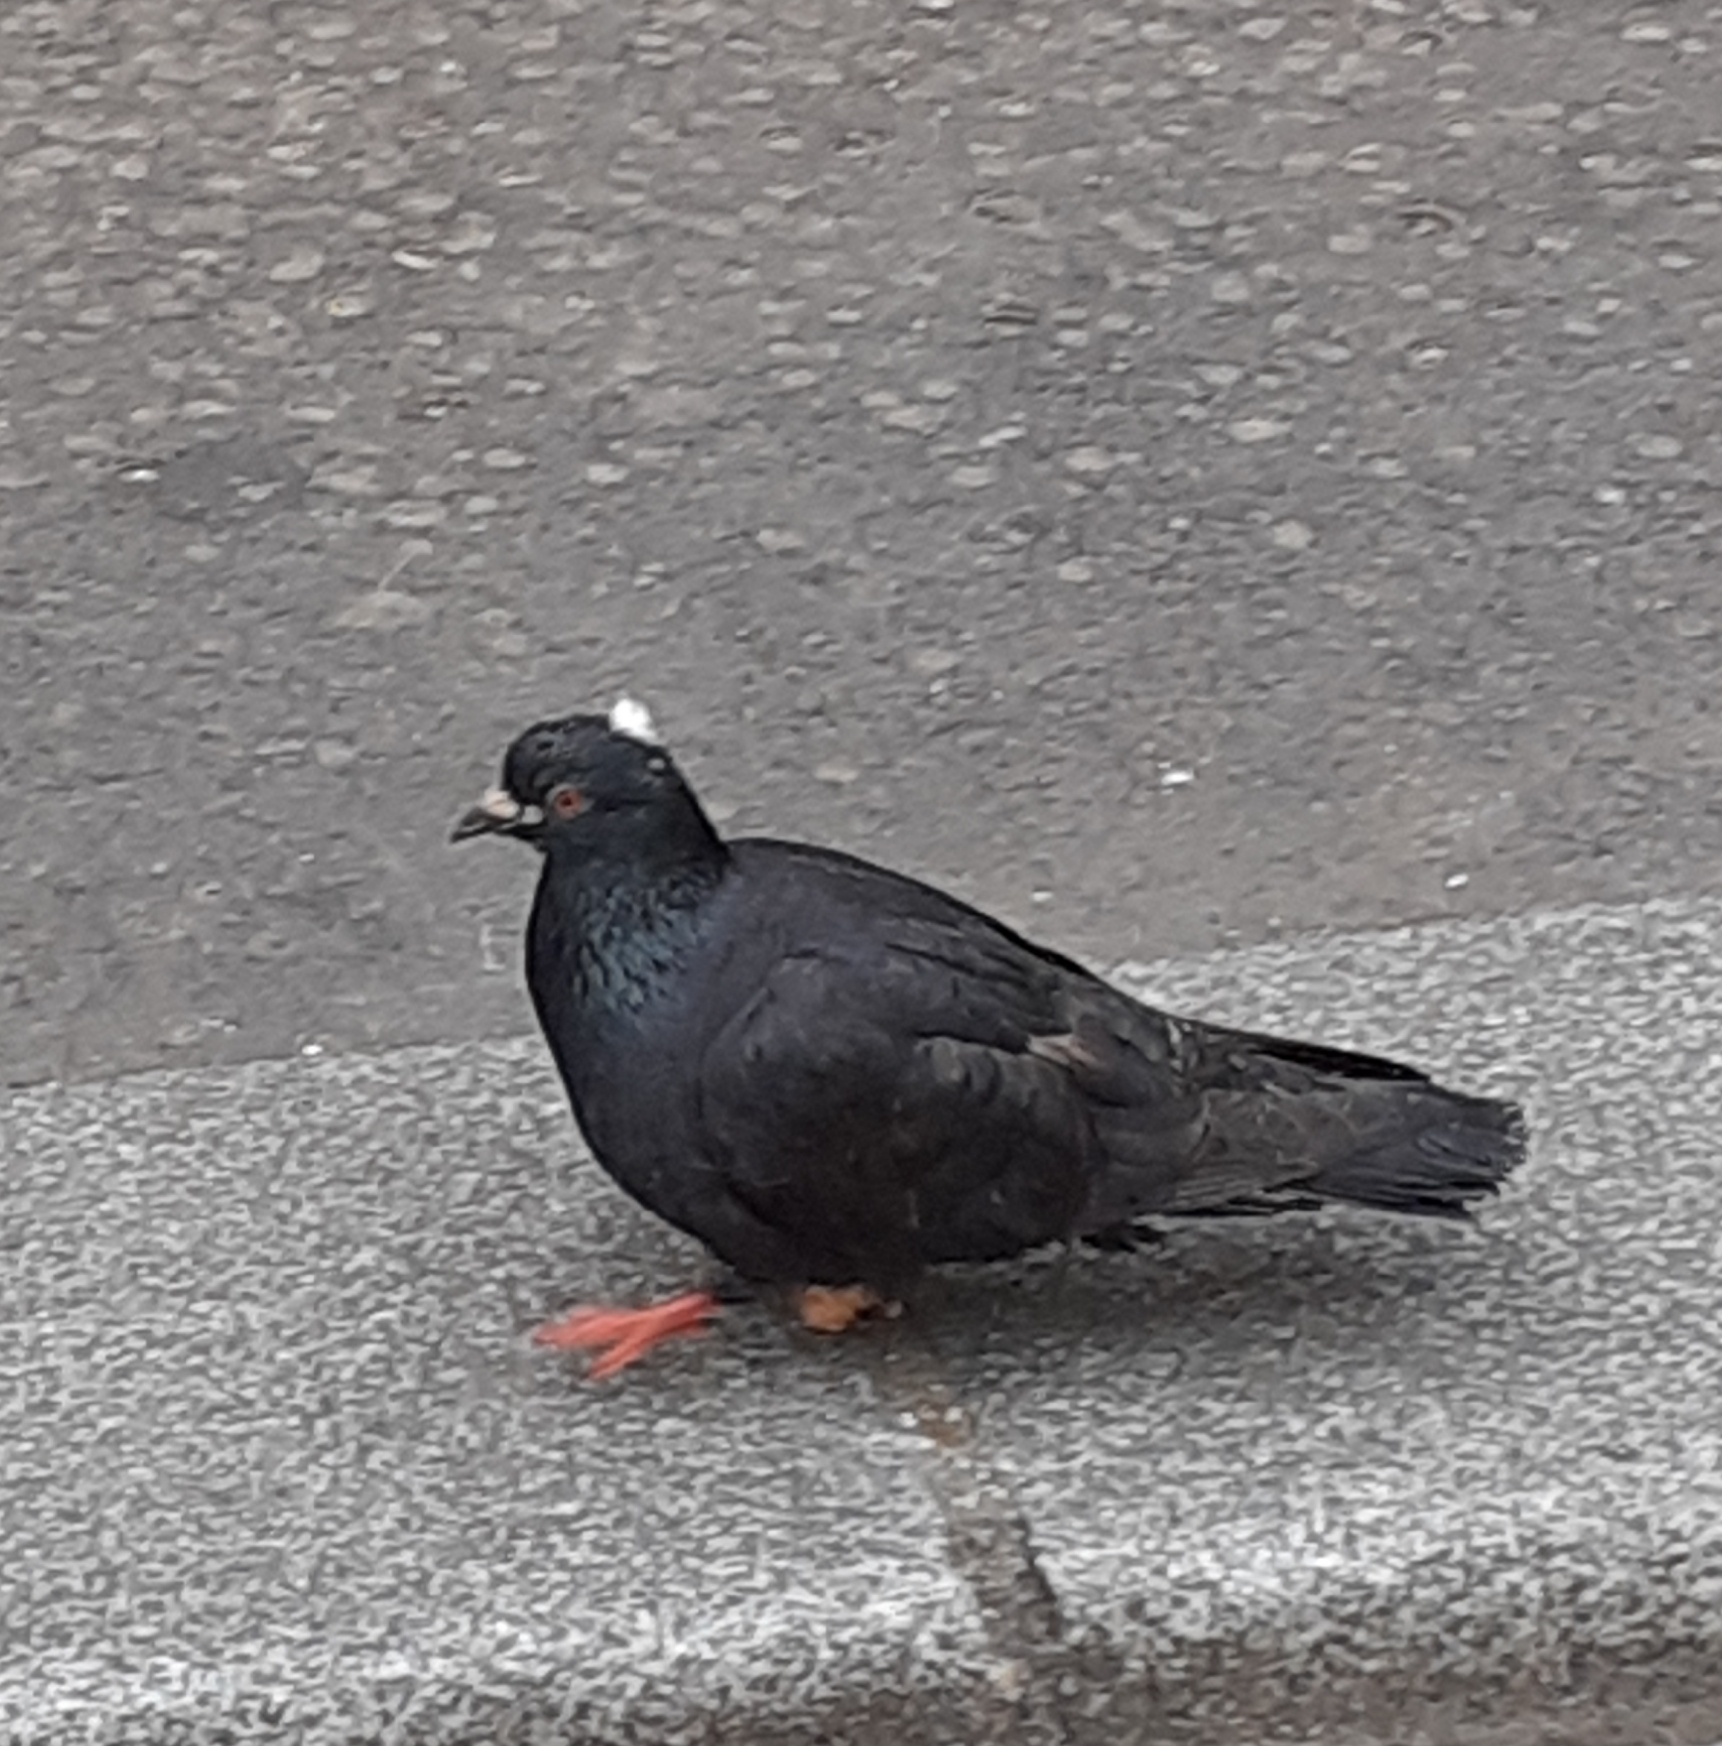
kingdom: Animalia
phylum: Chordata
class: Aves
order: Columbiformes
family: Columbidae
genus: Columba
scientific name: Columba livia
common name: Rock pigeon
